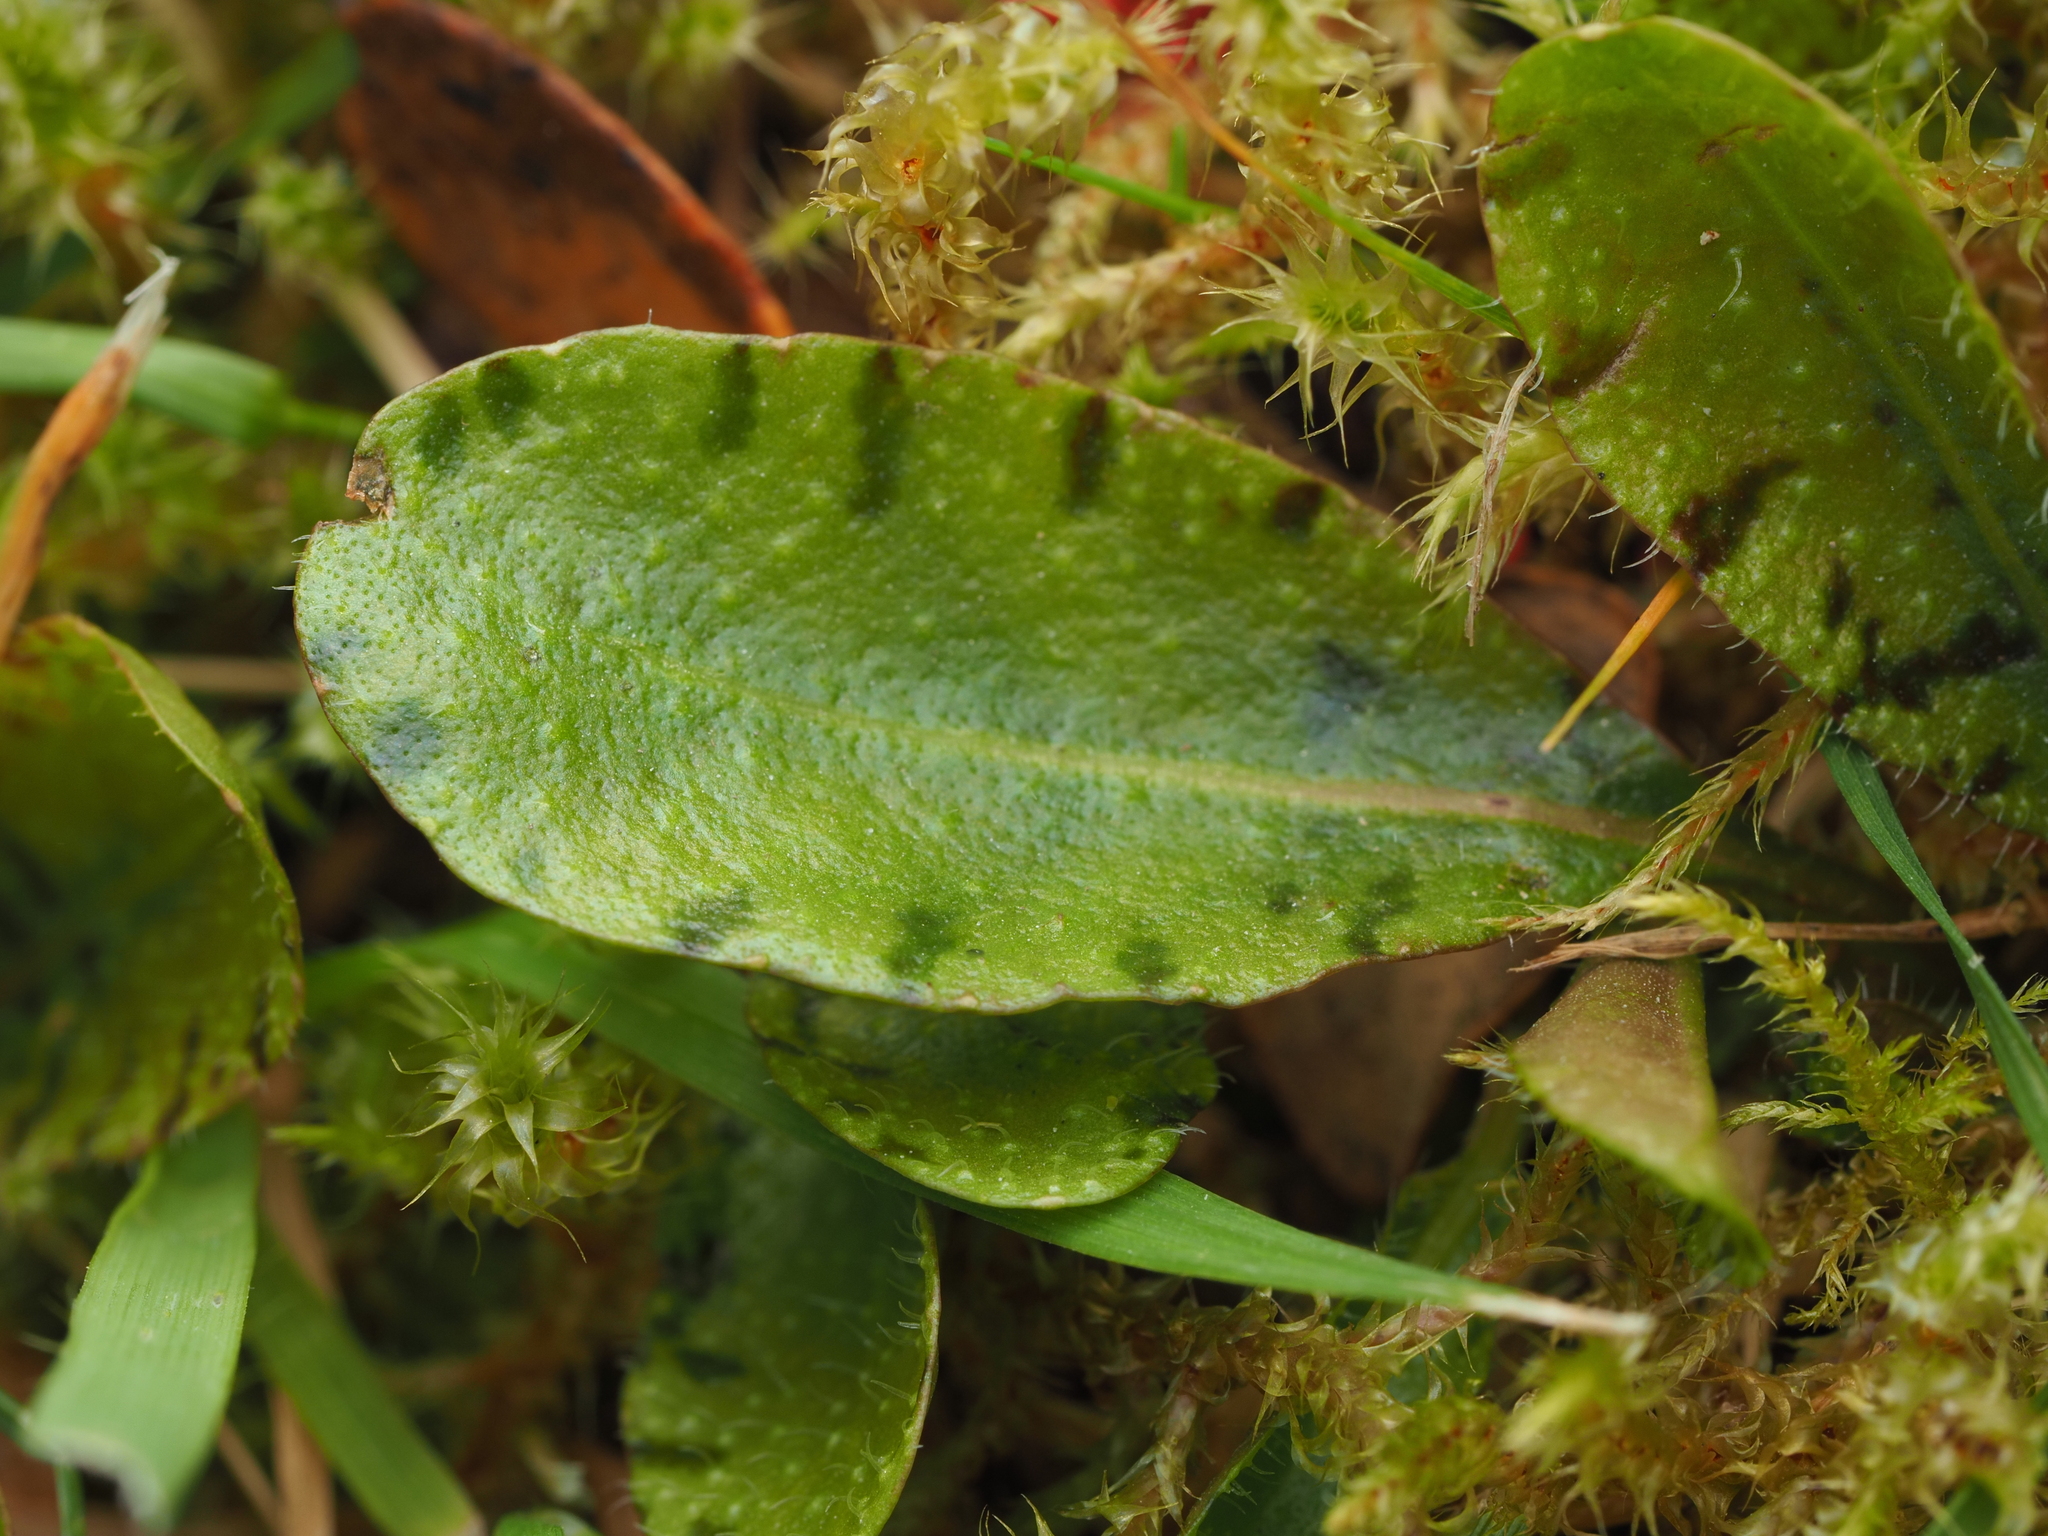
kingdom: Plantae
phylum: Tracheophyta
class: Magnoliopsida
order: Lamiales
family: Mazaceae
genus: Mazus
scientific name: Mazus radicans
